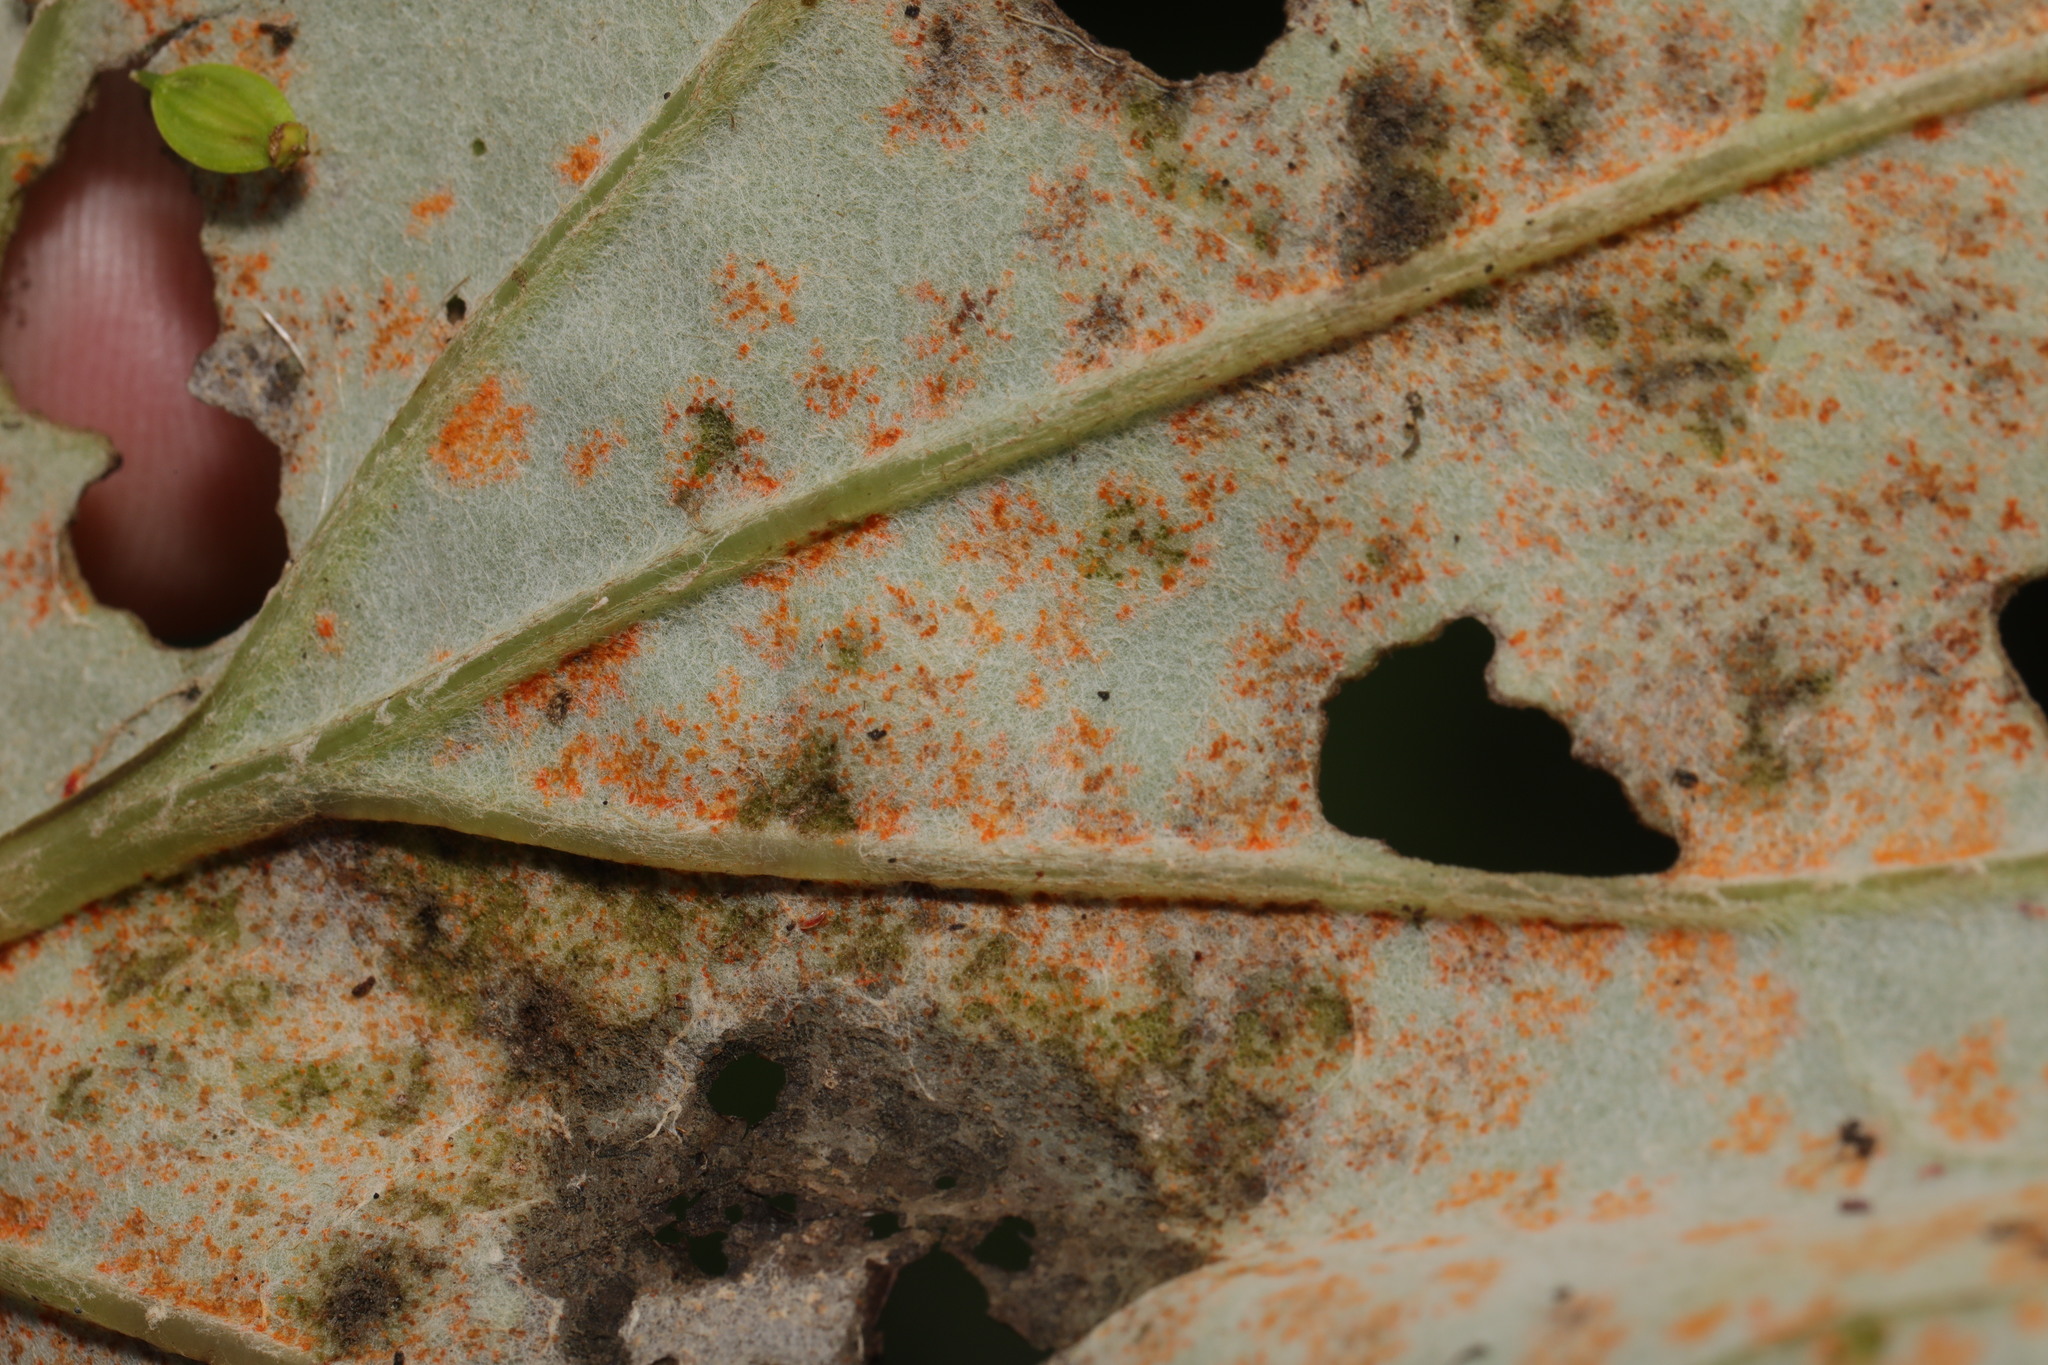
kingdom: Fungi
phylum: Basidiomycota
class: Pucciniomycetes
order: Pucciniales
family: Coleosporiaceae
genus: Coleosporium
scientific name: Coleosporium tussilaginis
